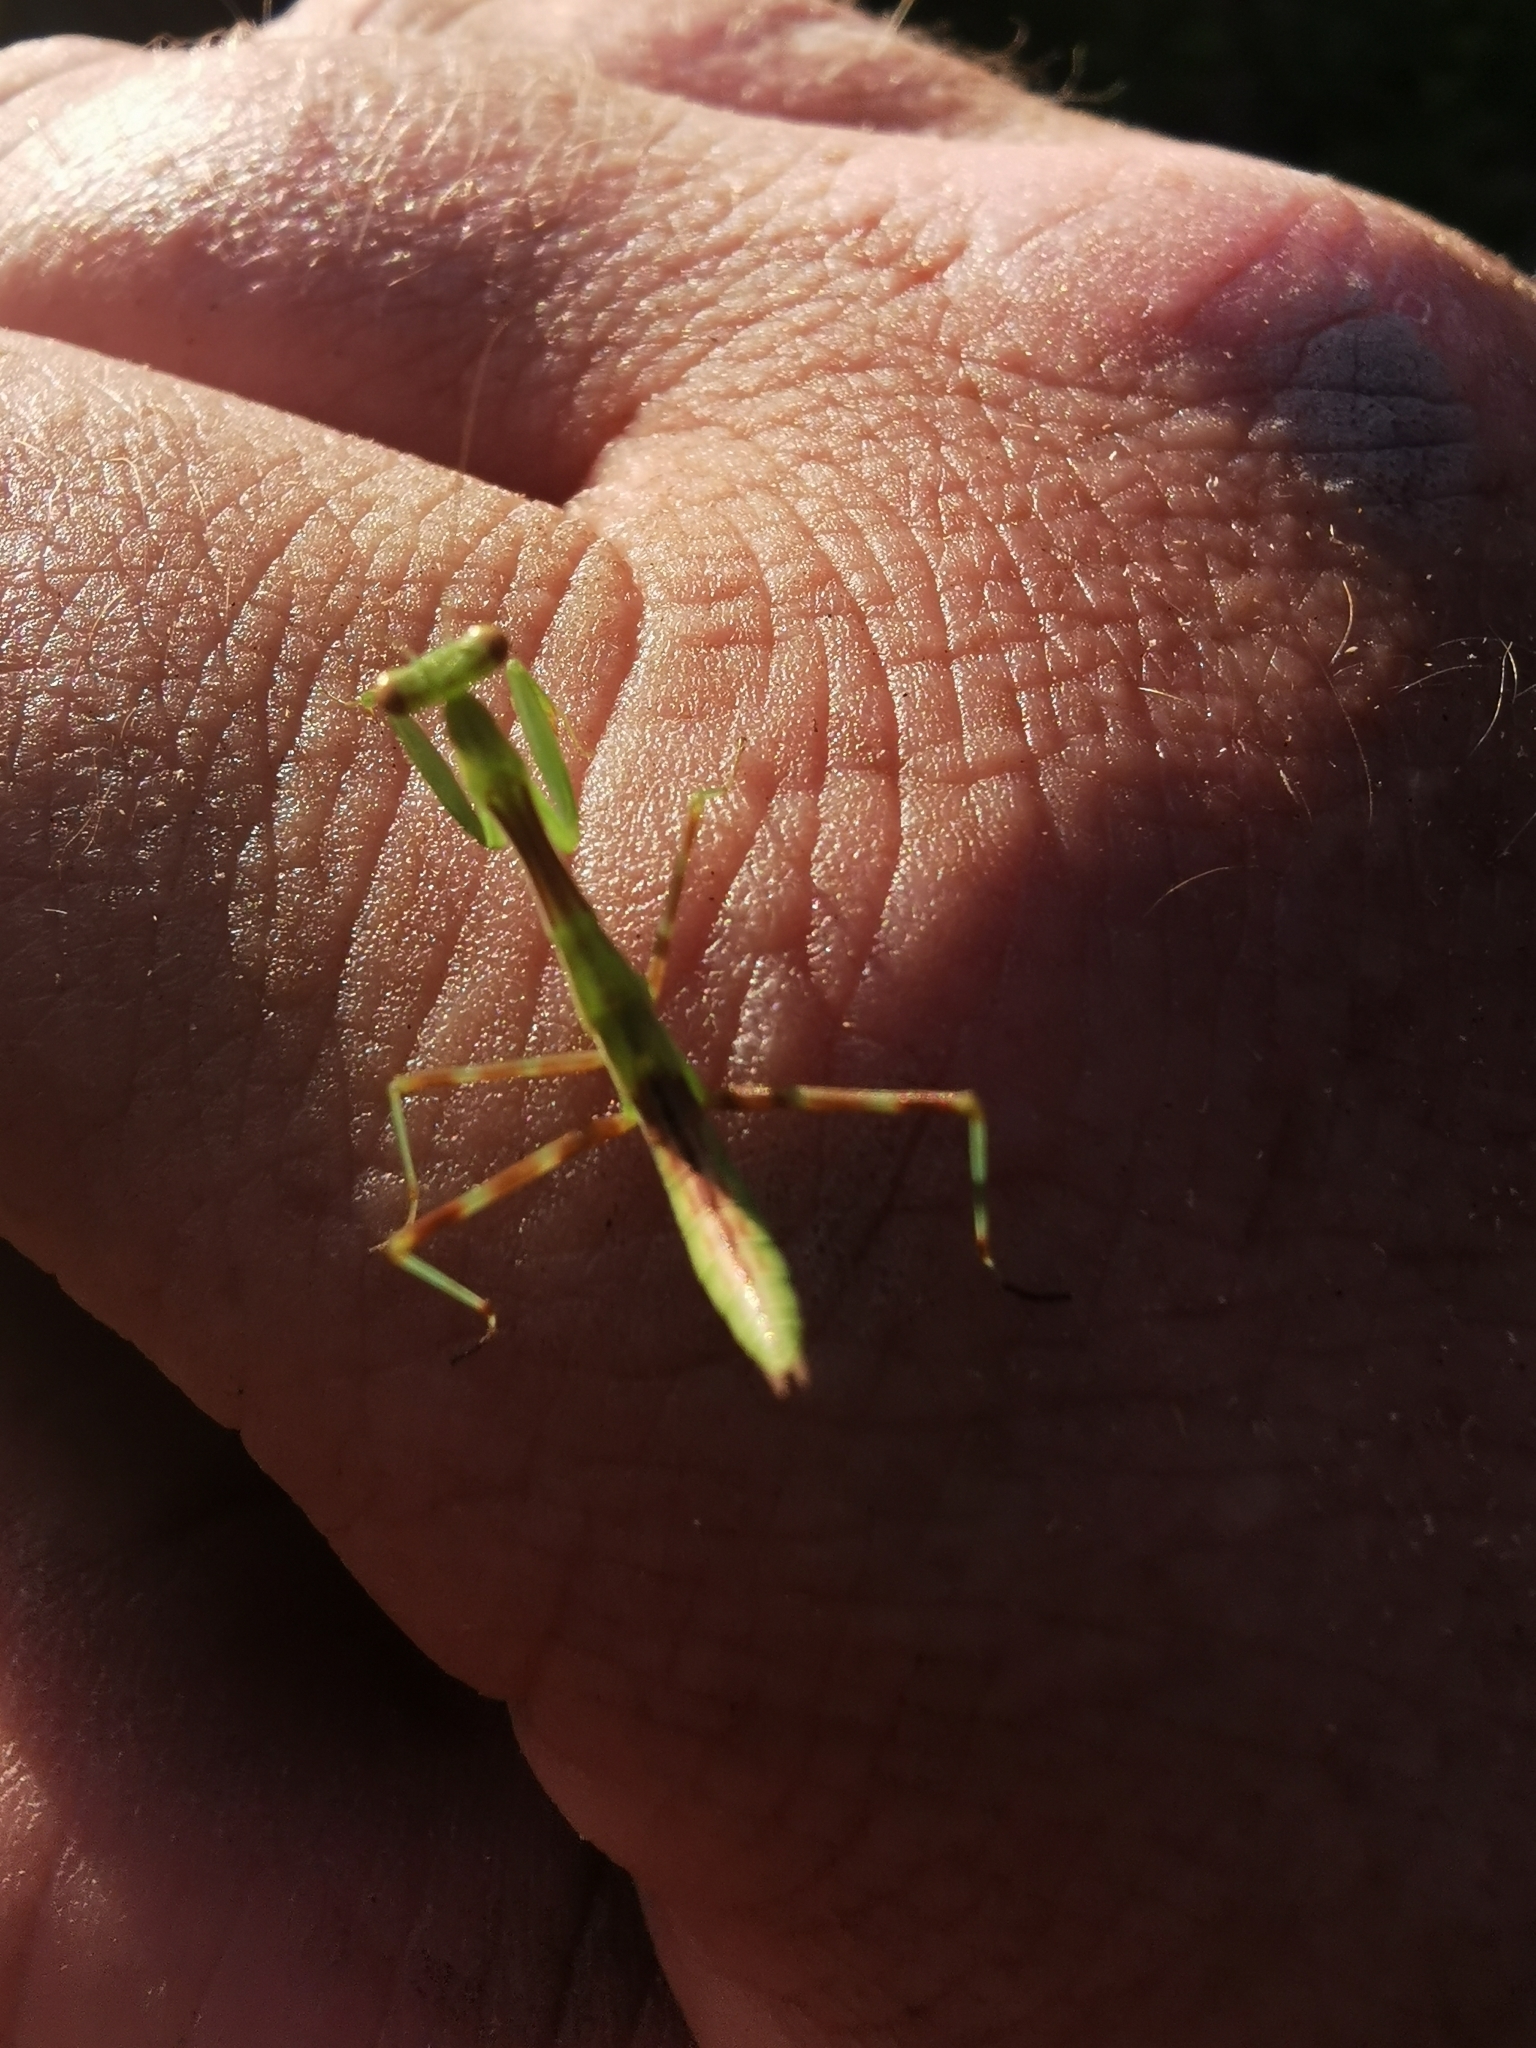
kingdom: Animalia
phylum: Arthropoda
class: Insecta
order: Mantodea
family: Miomantidae
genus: Miomantis
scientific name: Miomantis caffra
